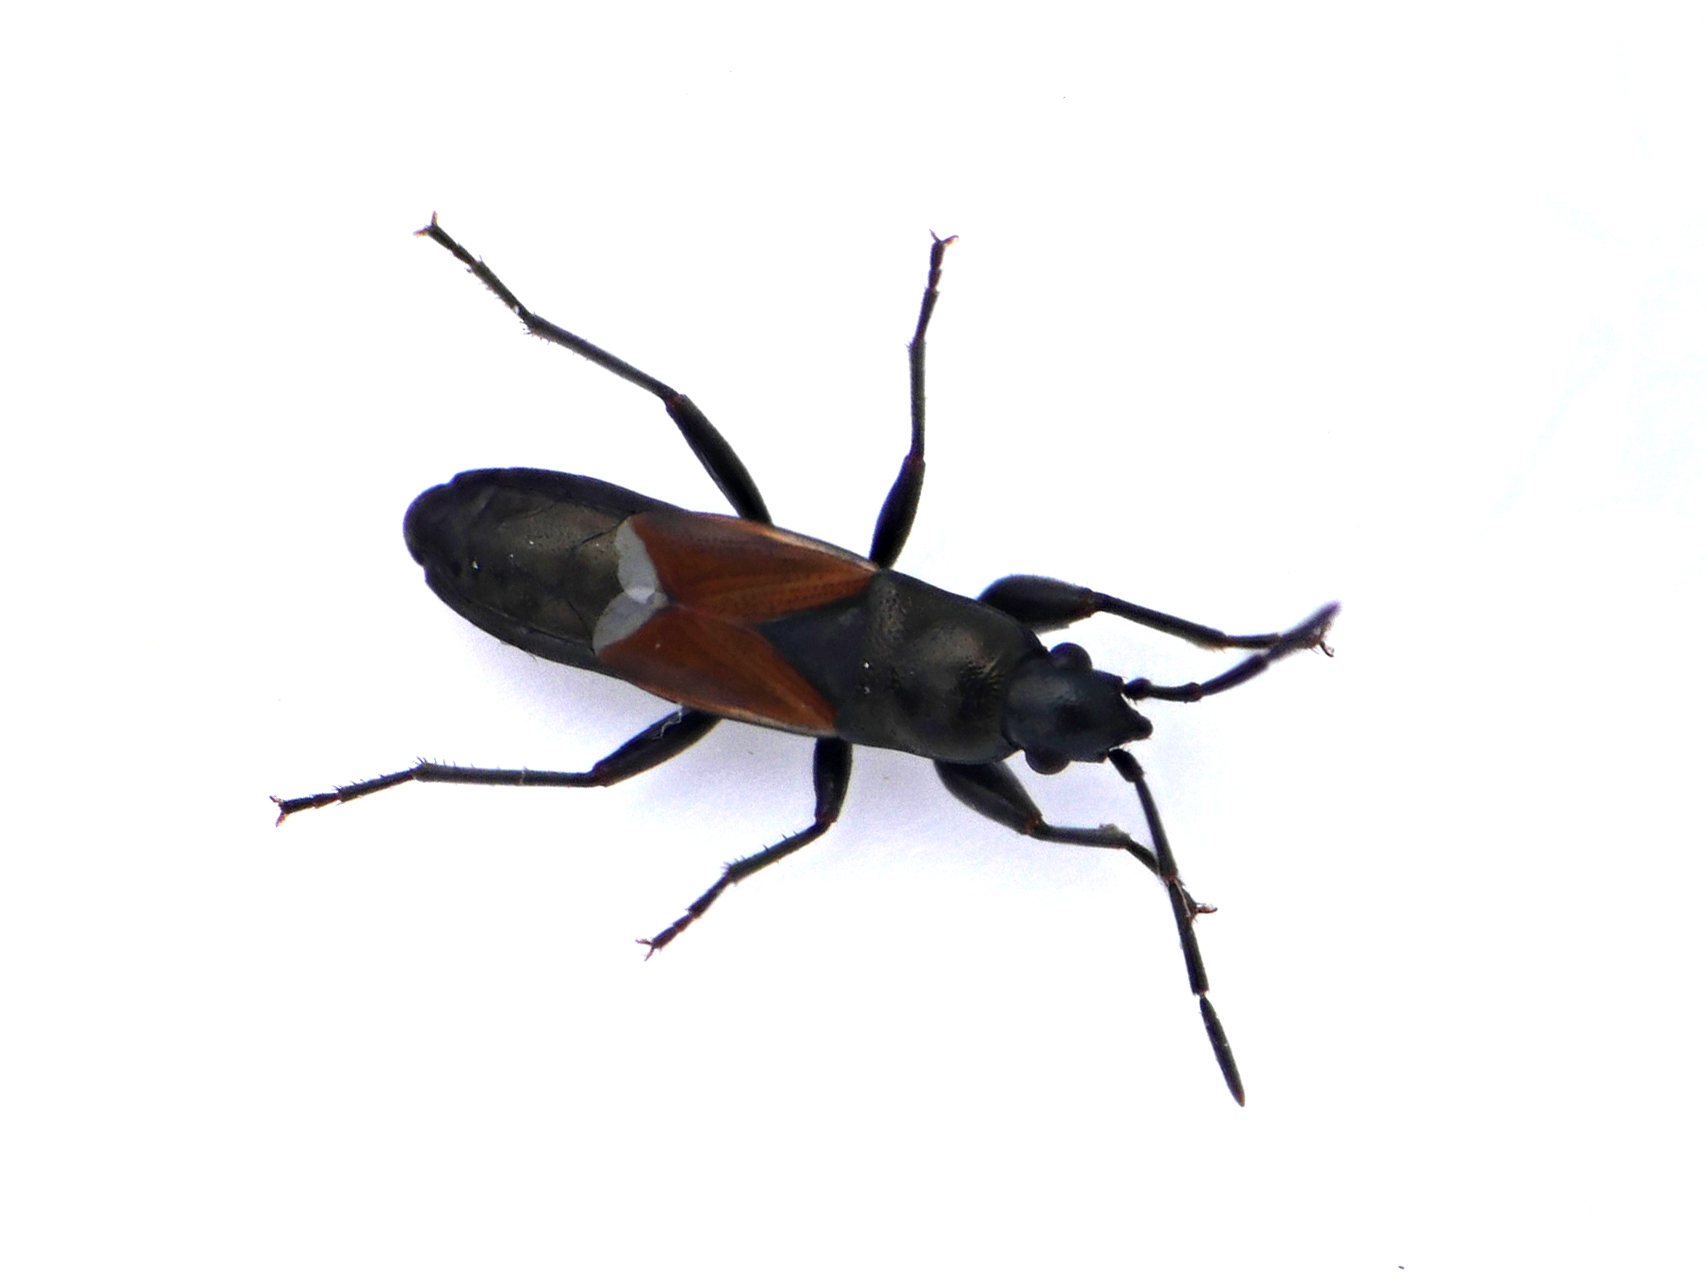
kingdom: Animalia
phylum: Arthropoda
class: Insecta
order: Hemiptera
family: Rhyparochromidae
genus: Pterotmetus
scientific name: Pterotmetus staphyliniformis
